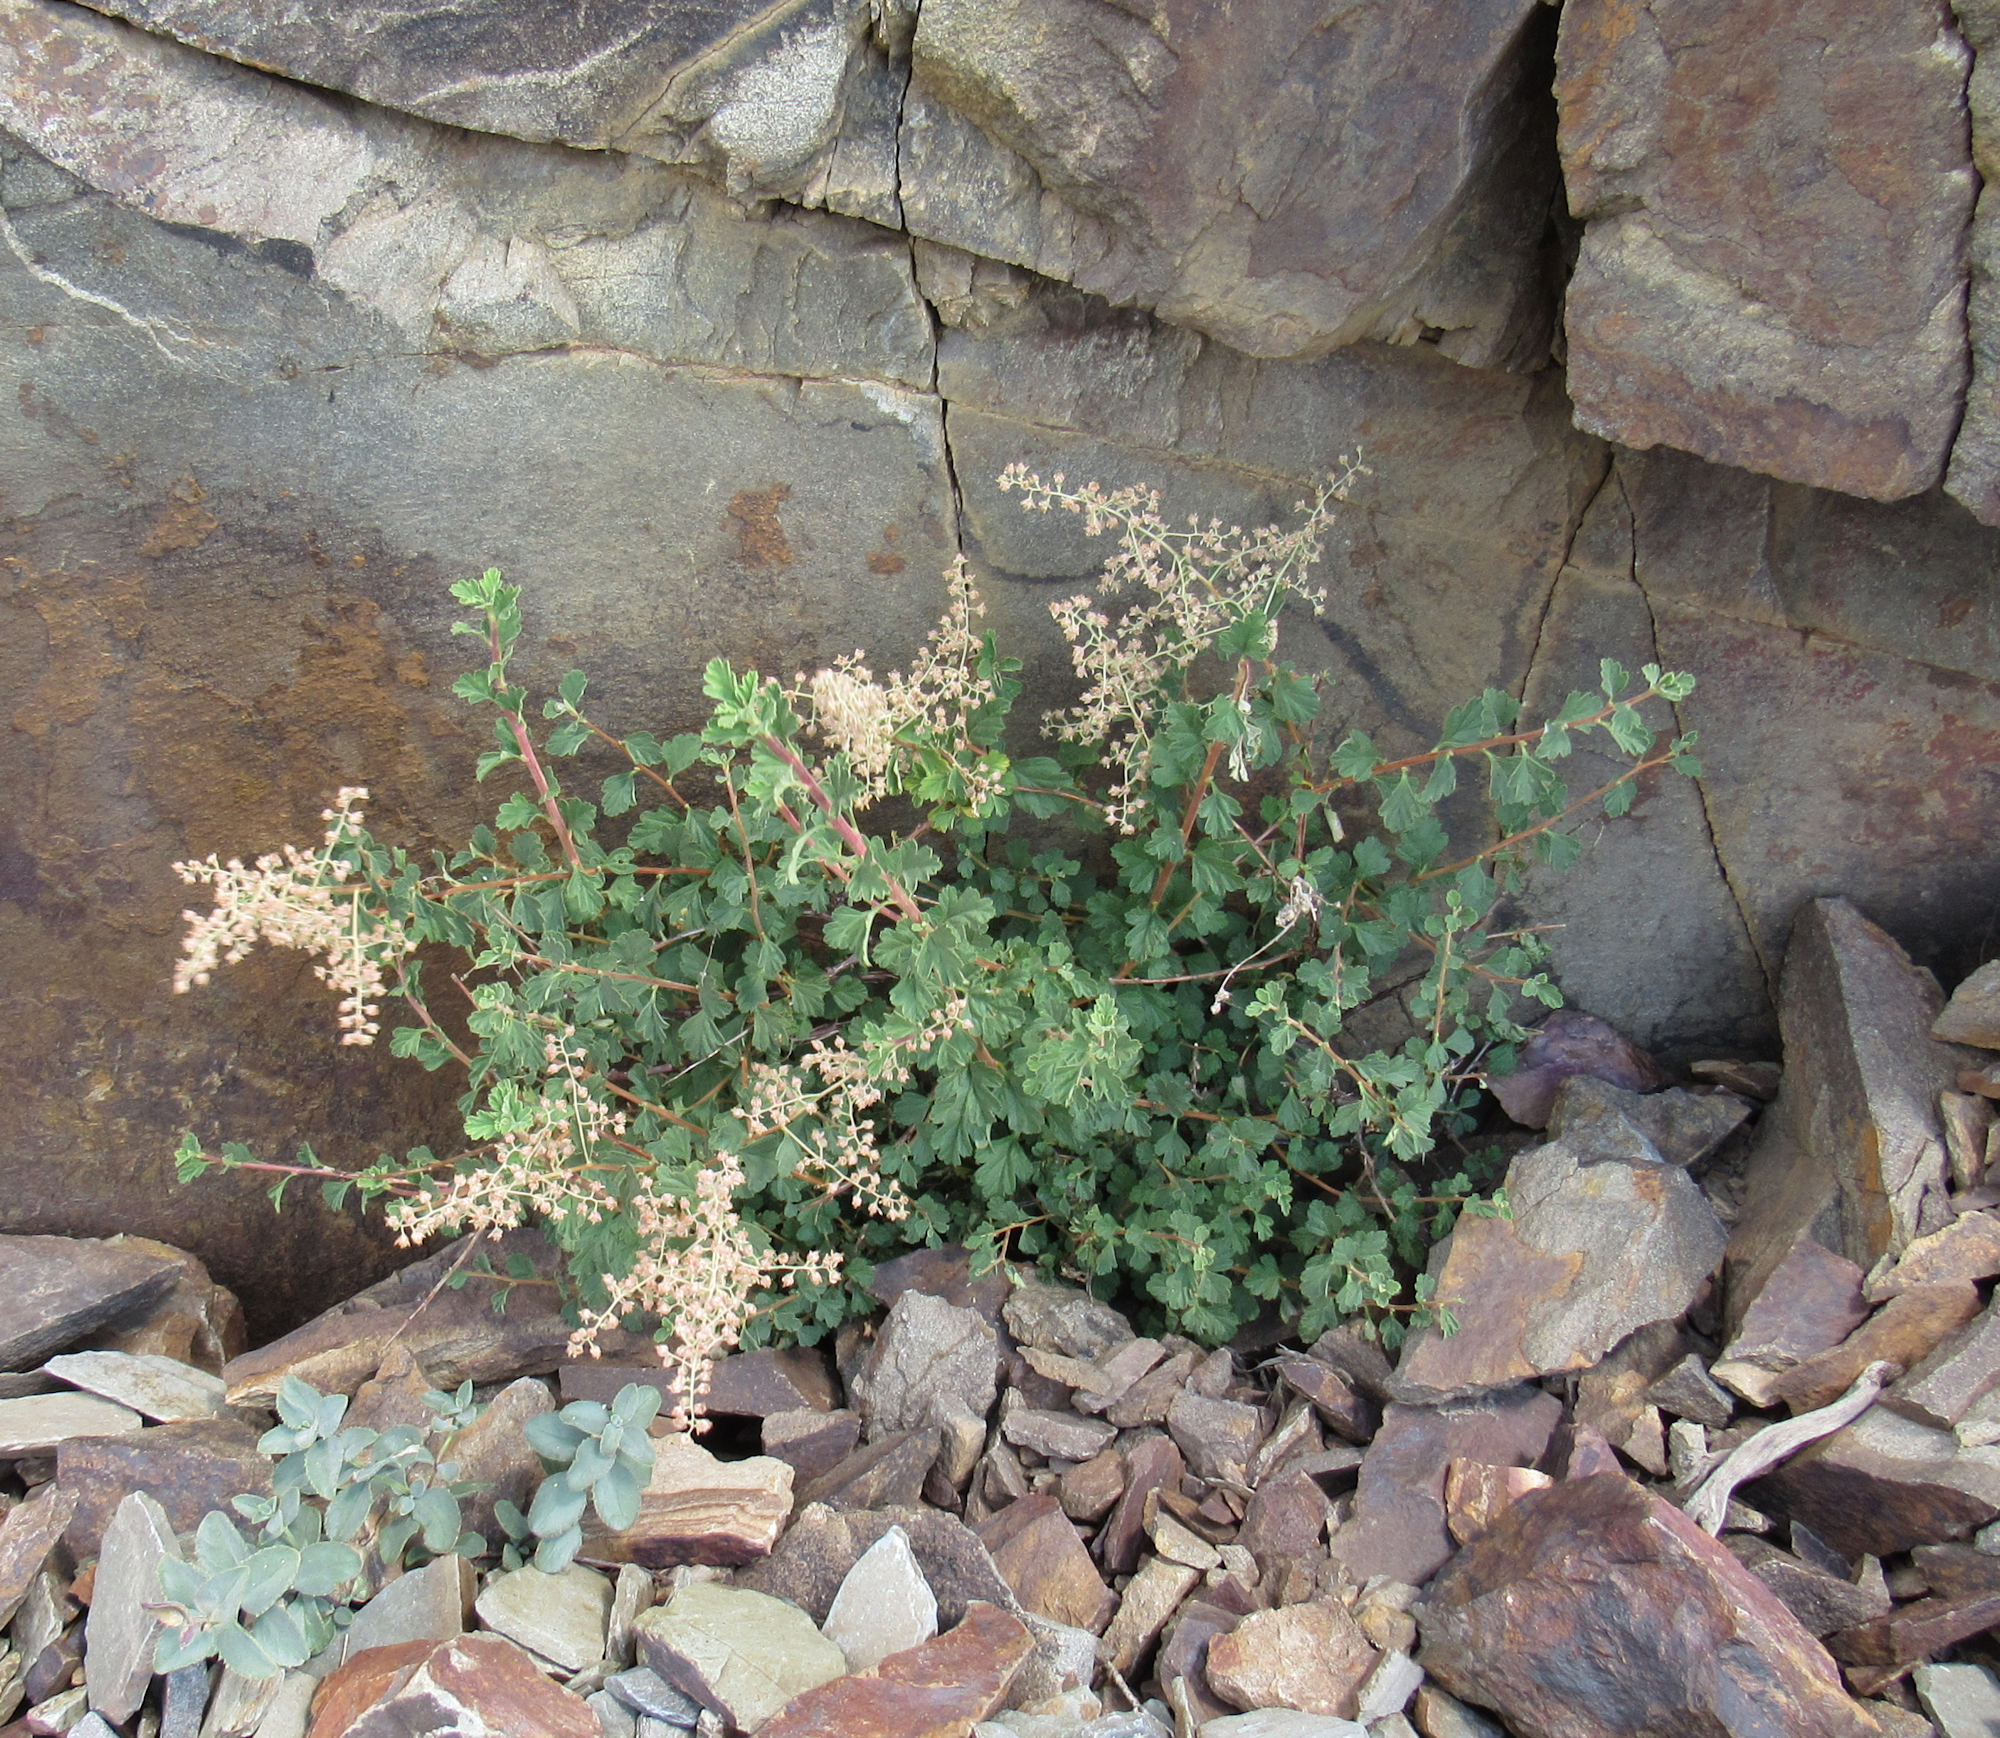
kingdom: Plantae
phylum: Tracheophyta
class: Magnoliopsida
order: Rosales
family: Rosaceae
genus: Holodiscus
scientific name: Holodiscus discolor
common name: Oceanspray
